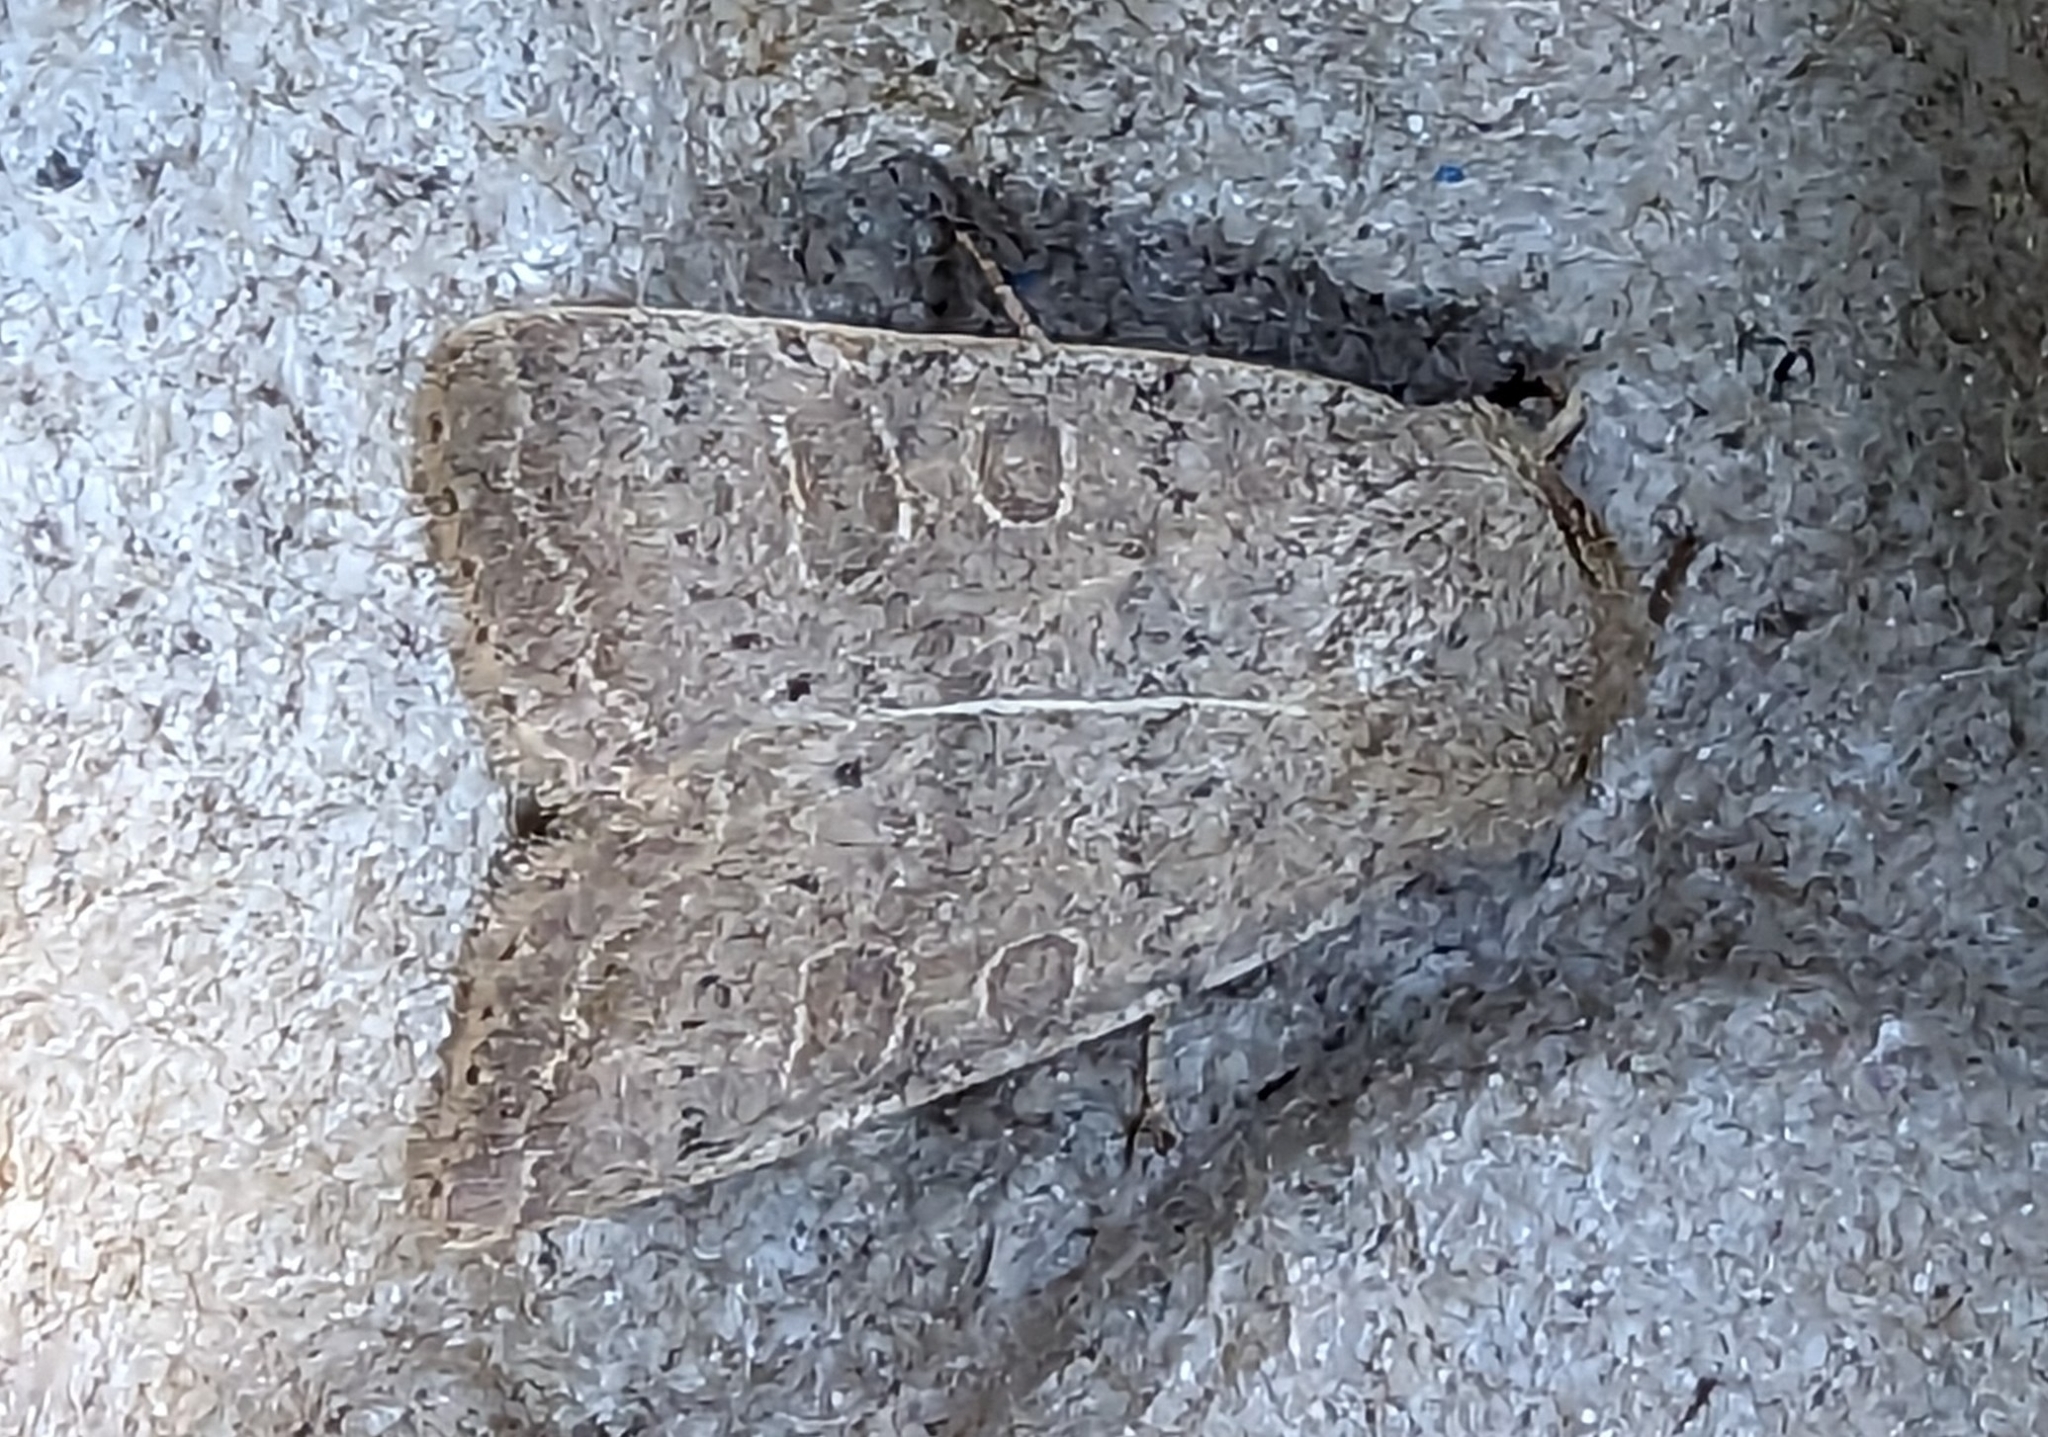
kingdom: Animalia
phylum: Arthropoda
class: Insecta
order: Lepidoptera
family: Noctuidae
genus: Hoplodrina
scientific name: Hoplodrina ambigua
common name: Vine's rustic
